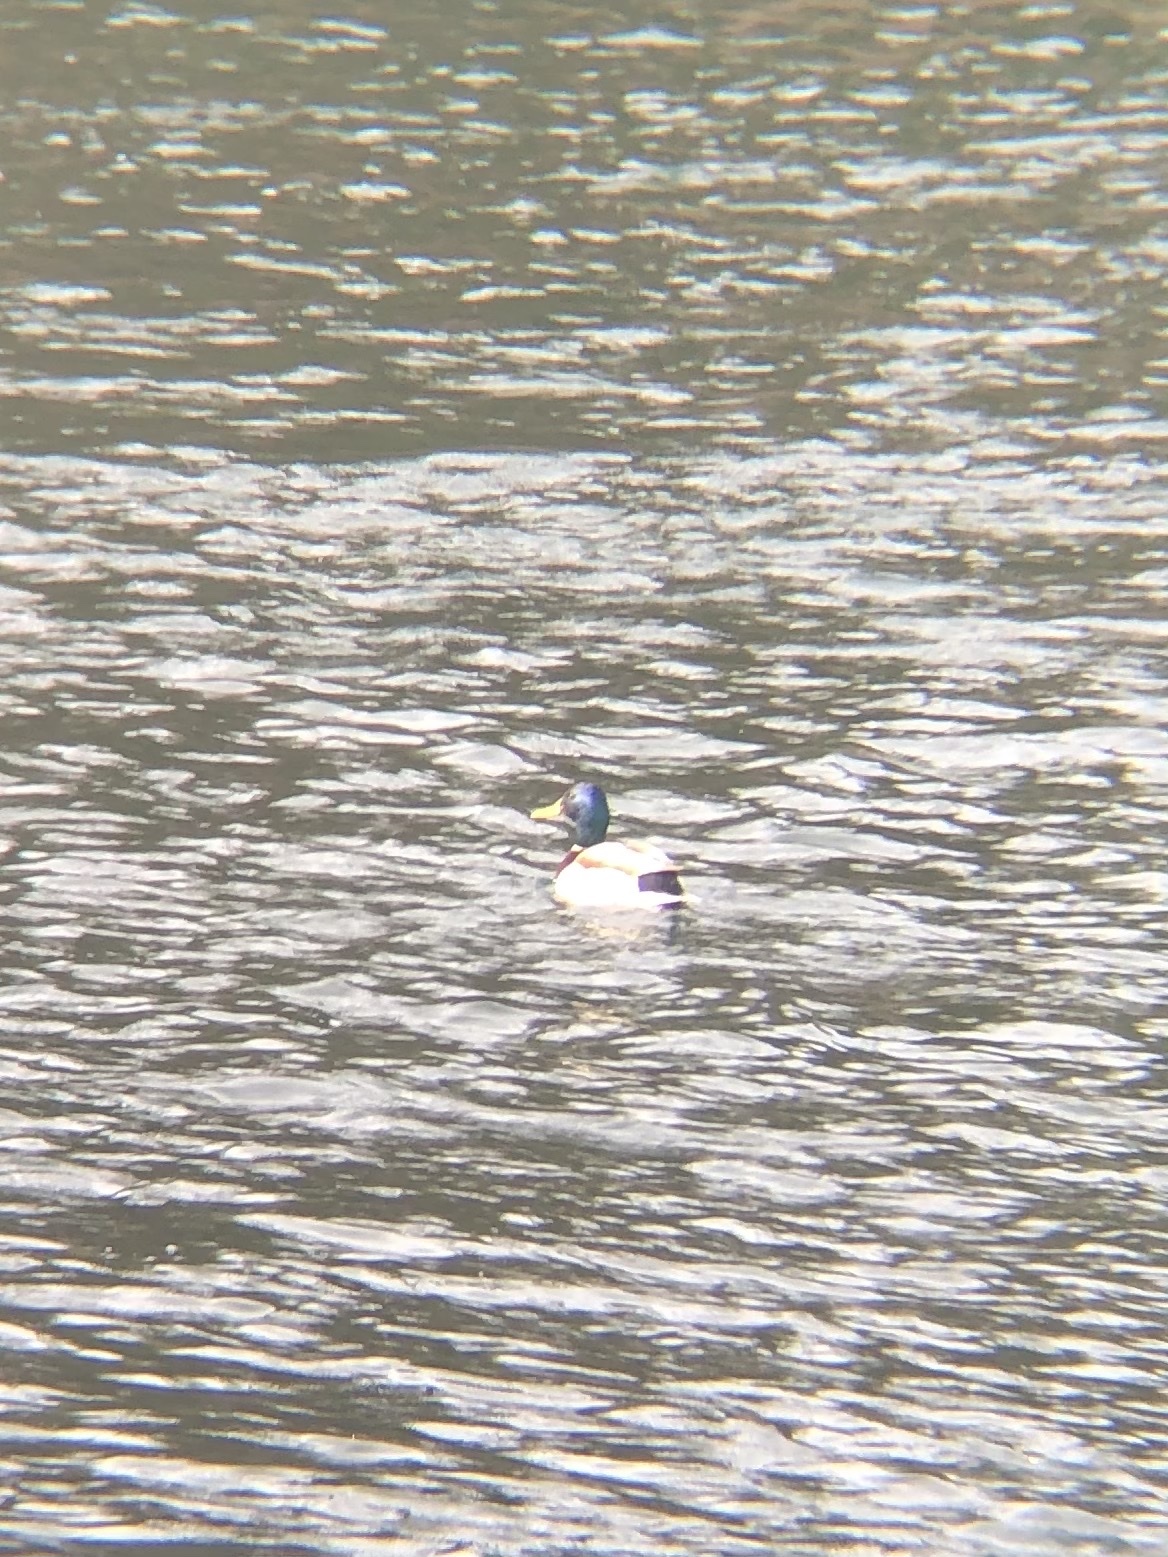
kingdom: Animalia
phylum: Chordata
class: Aves
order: Anseriformes
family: Anatidae
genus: Anas
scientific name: Anas platyrhynchos
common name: Mallard
